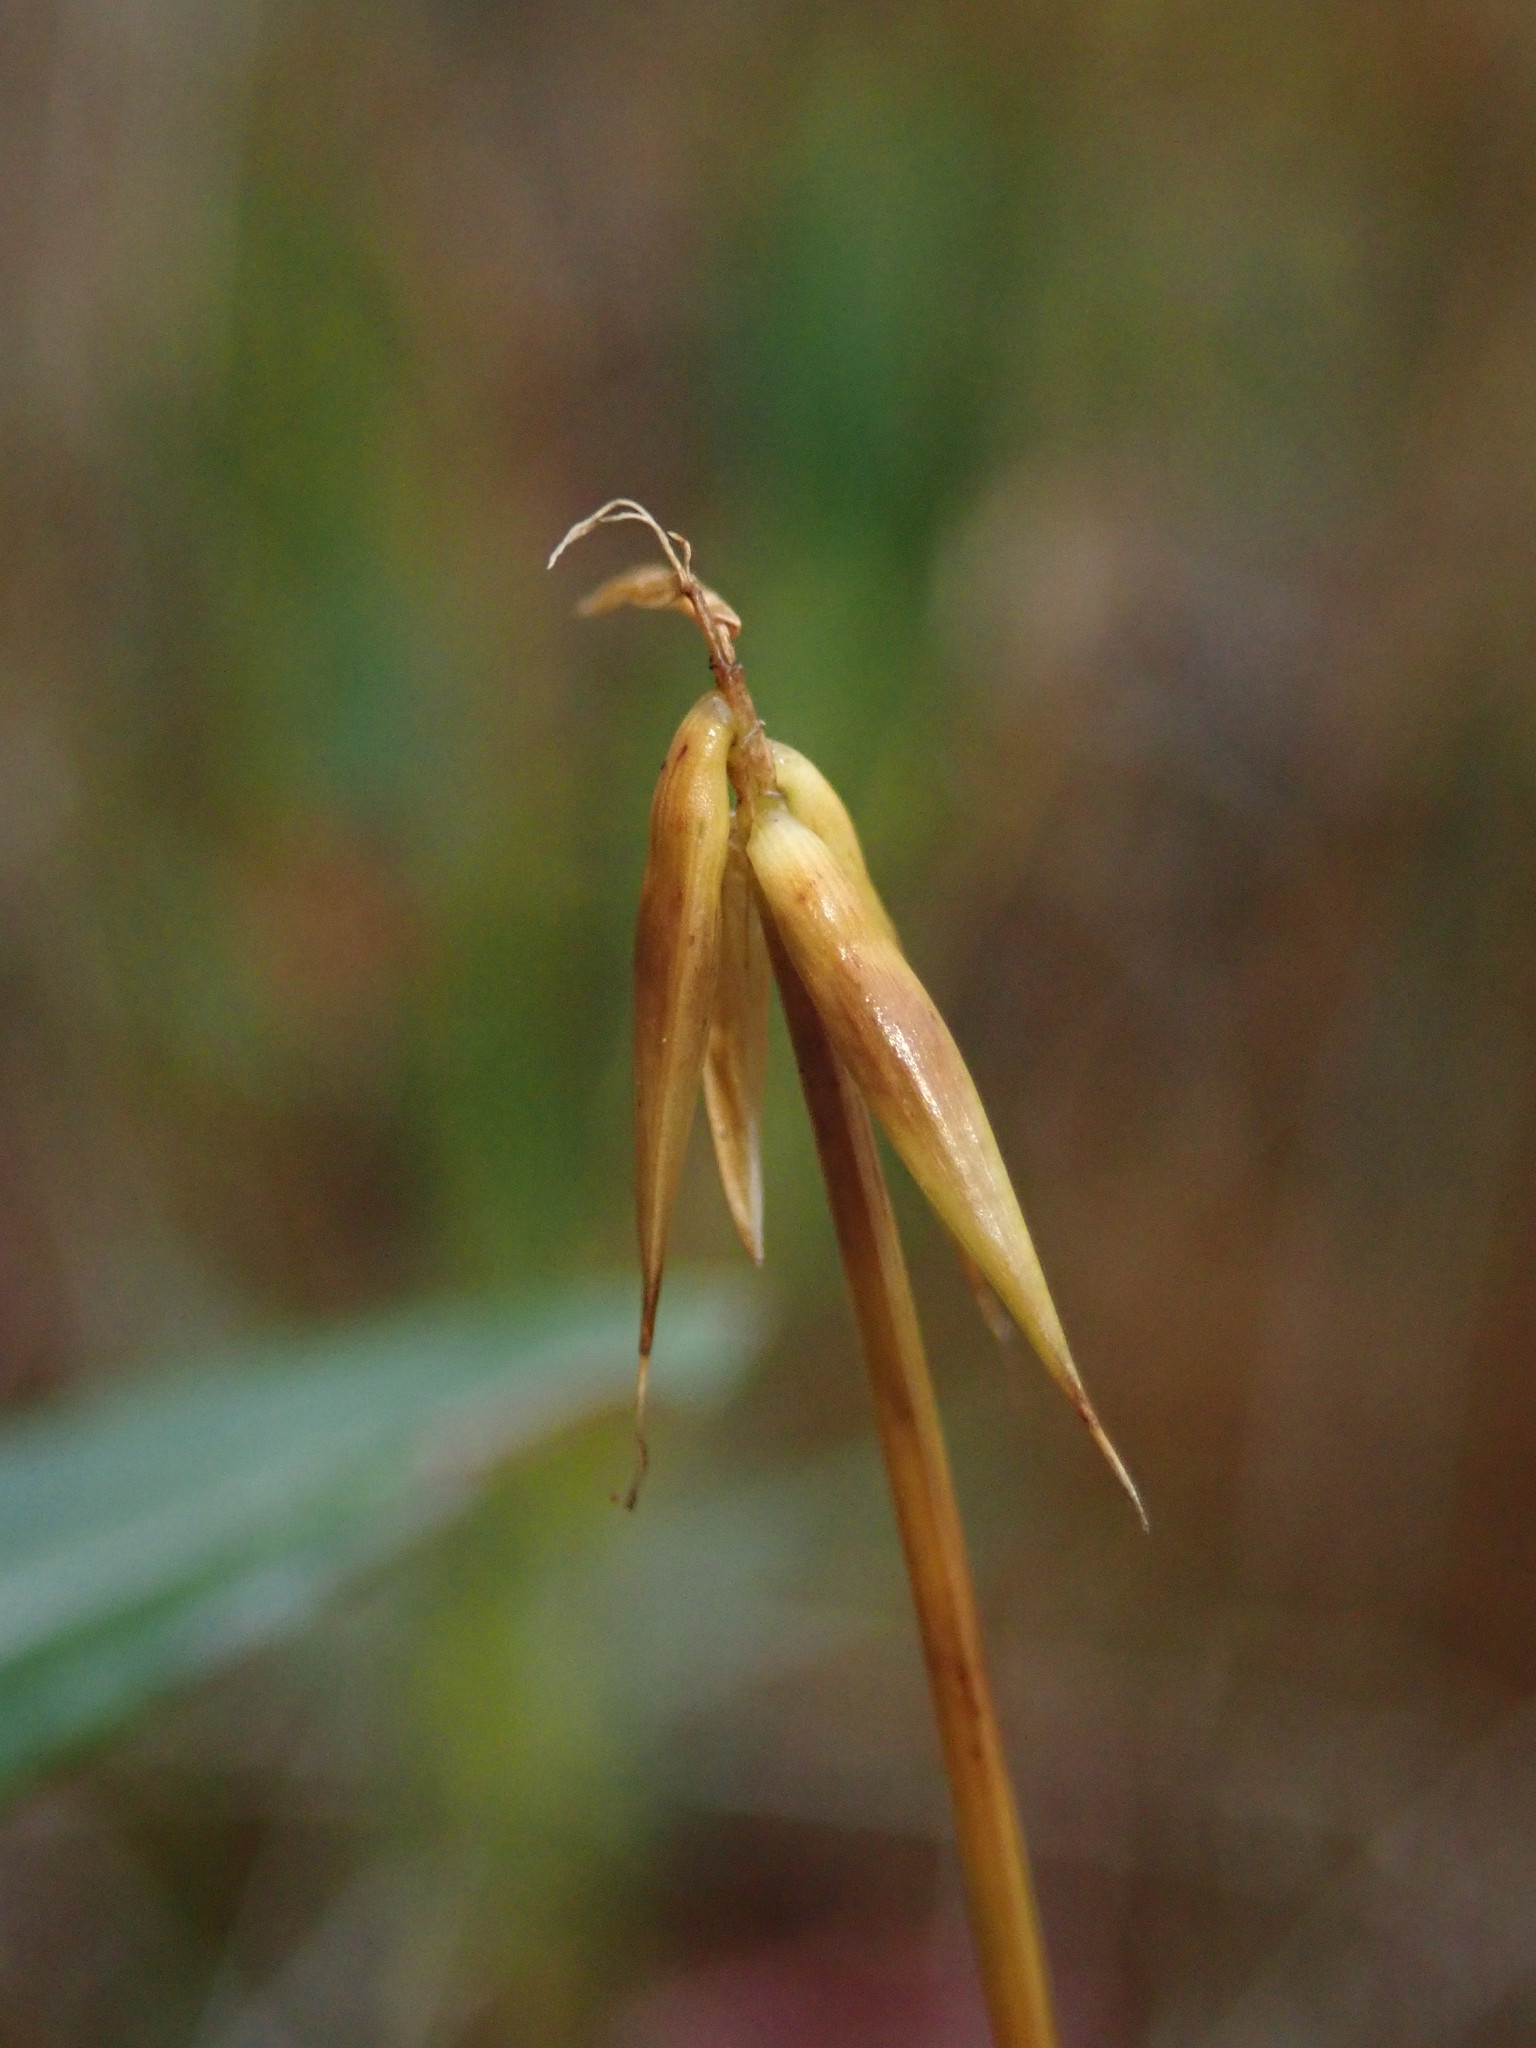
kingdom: Plantae
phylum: Tracheophyta
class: Liliopsida
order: Poales
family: Cyperaceae
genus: Carex
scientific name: Carex pauciflora
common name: Few-flowered sedge
